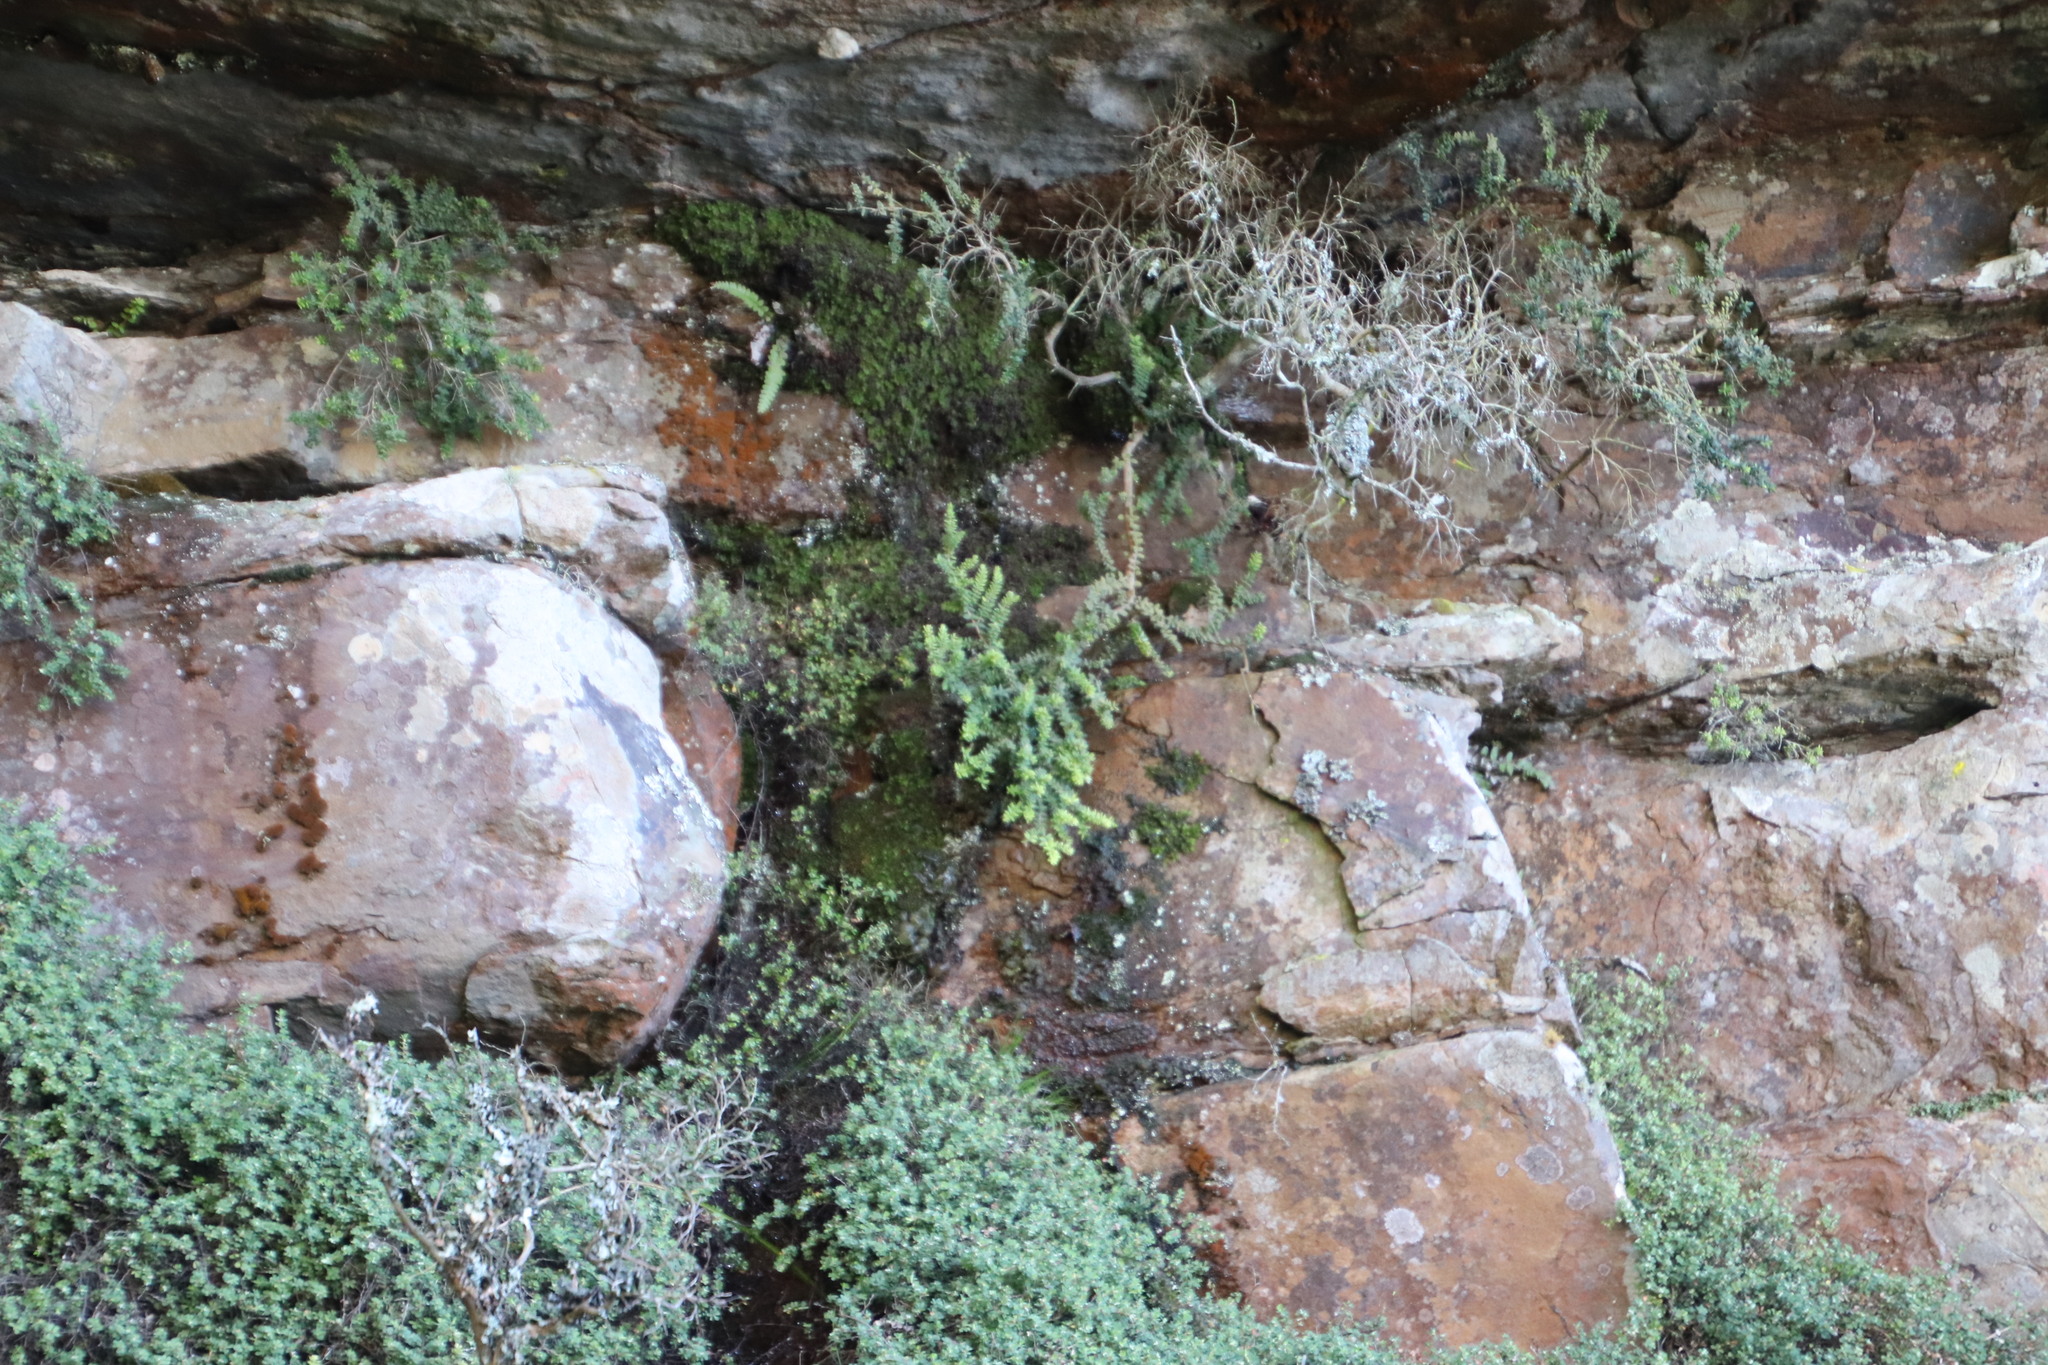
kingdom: Plantae
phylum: Tracheophyta
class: Magnoliopsida
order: Ericales
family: Ericaceae
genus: Erica
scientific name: Erica marifolia
